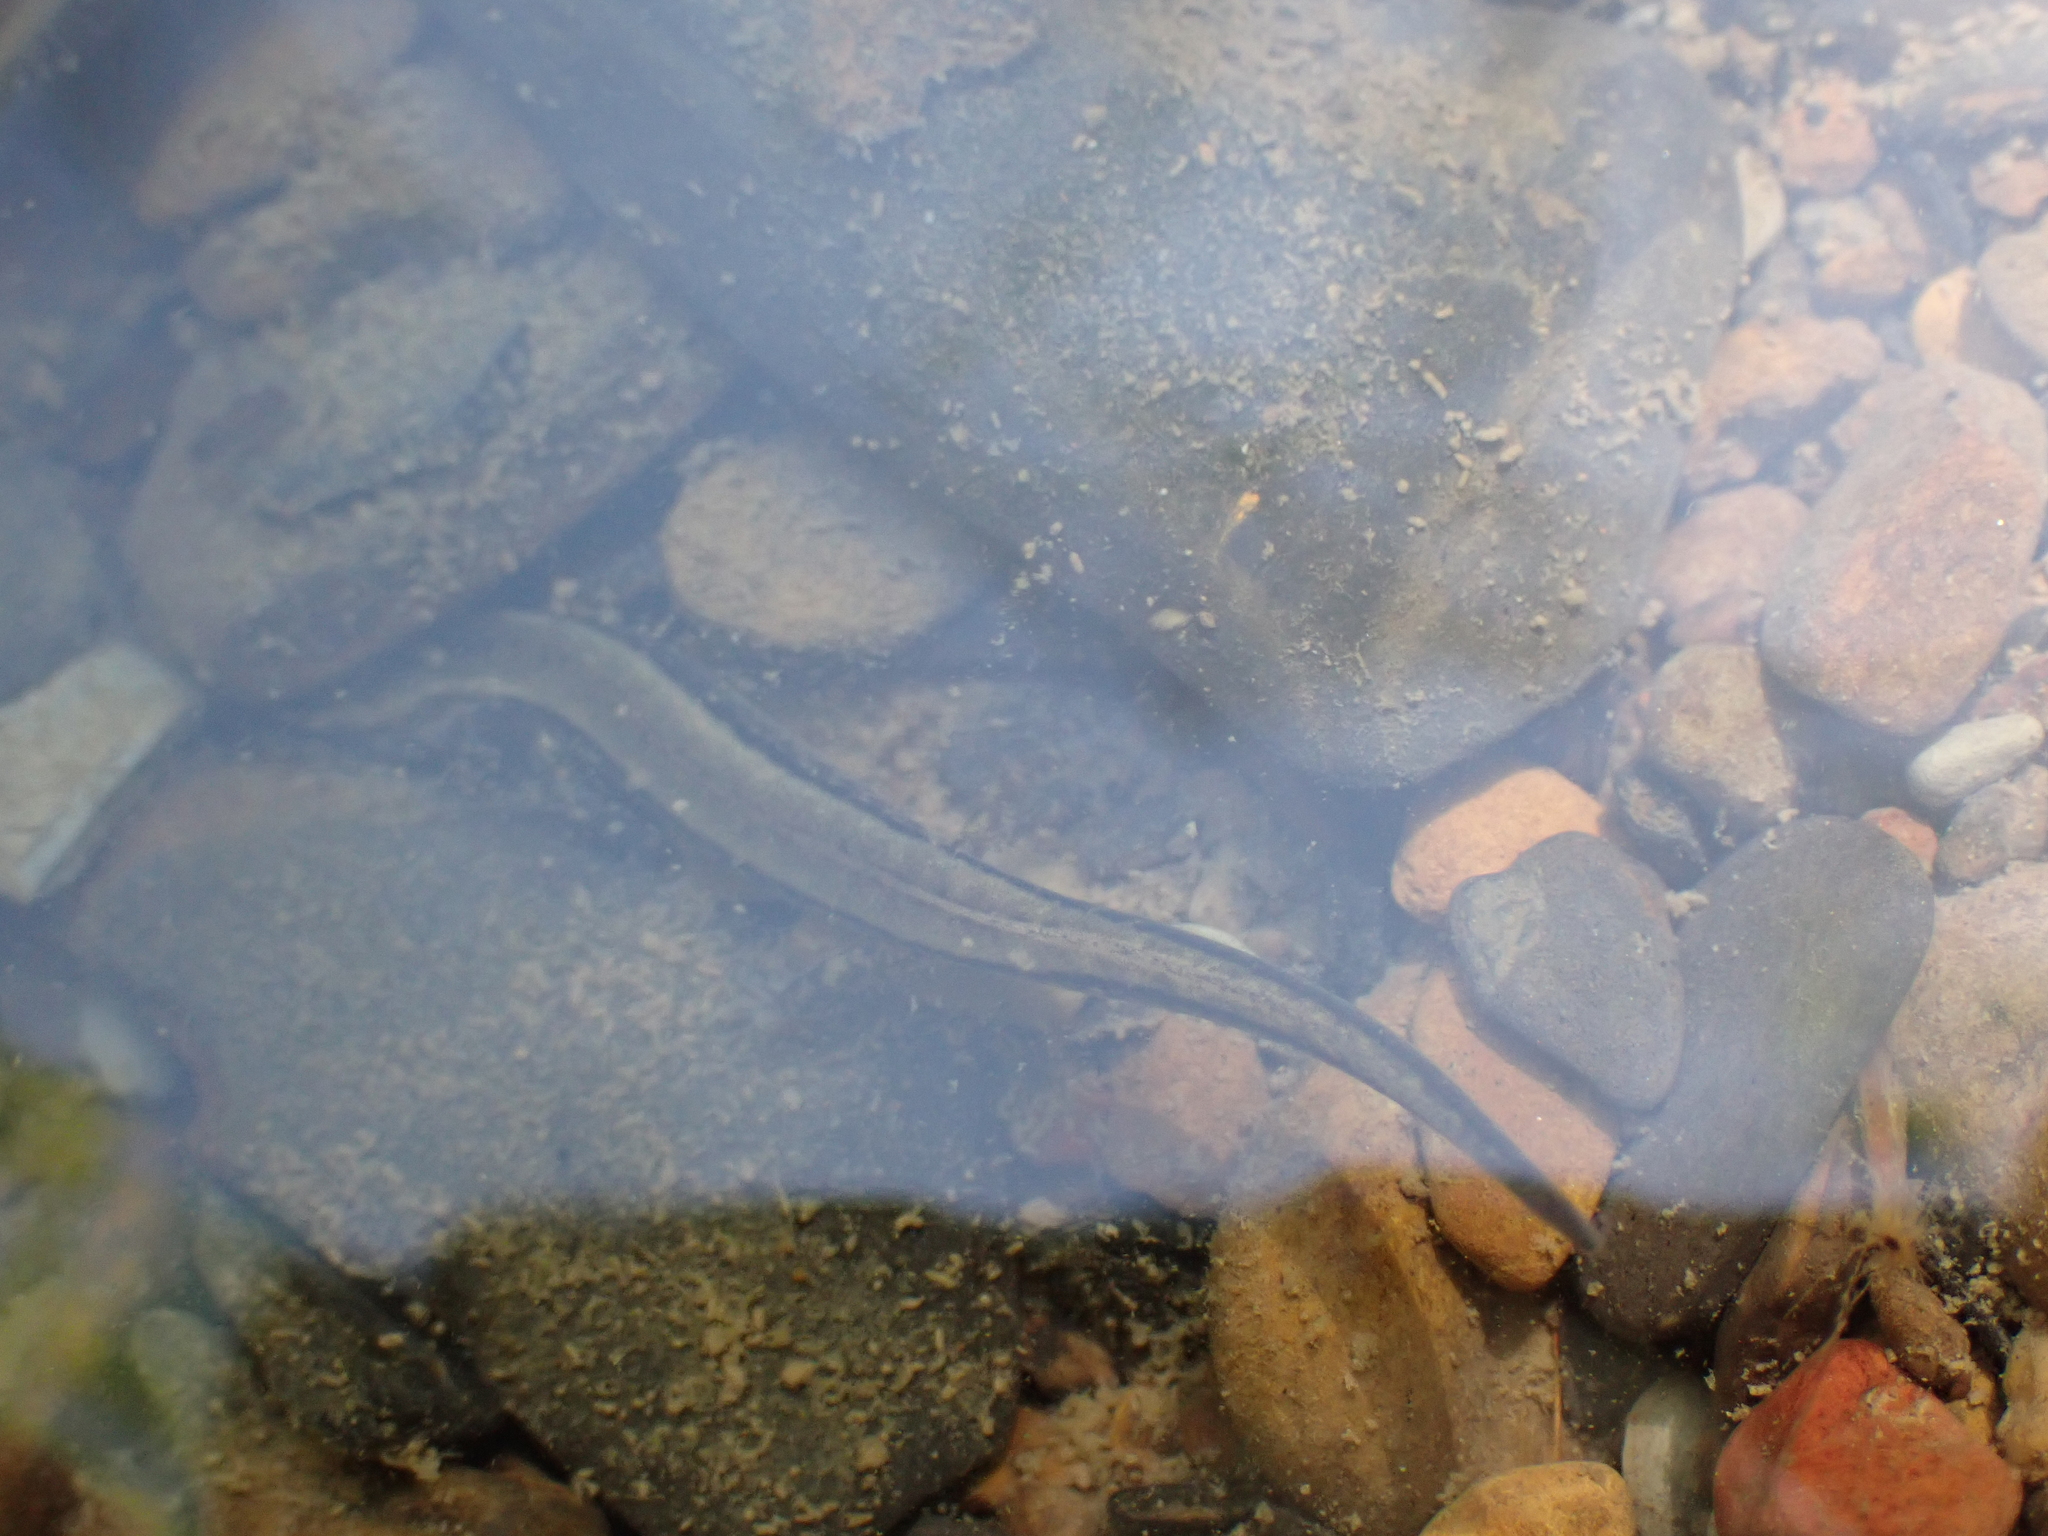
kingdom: Animalia
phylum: Chordata
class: Amphibia
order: Caudata
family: Plethodontidae
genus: Eurycea
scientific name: Eurycea cirrigera
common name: Southern two-lined salamander
